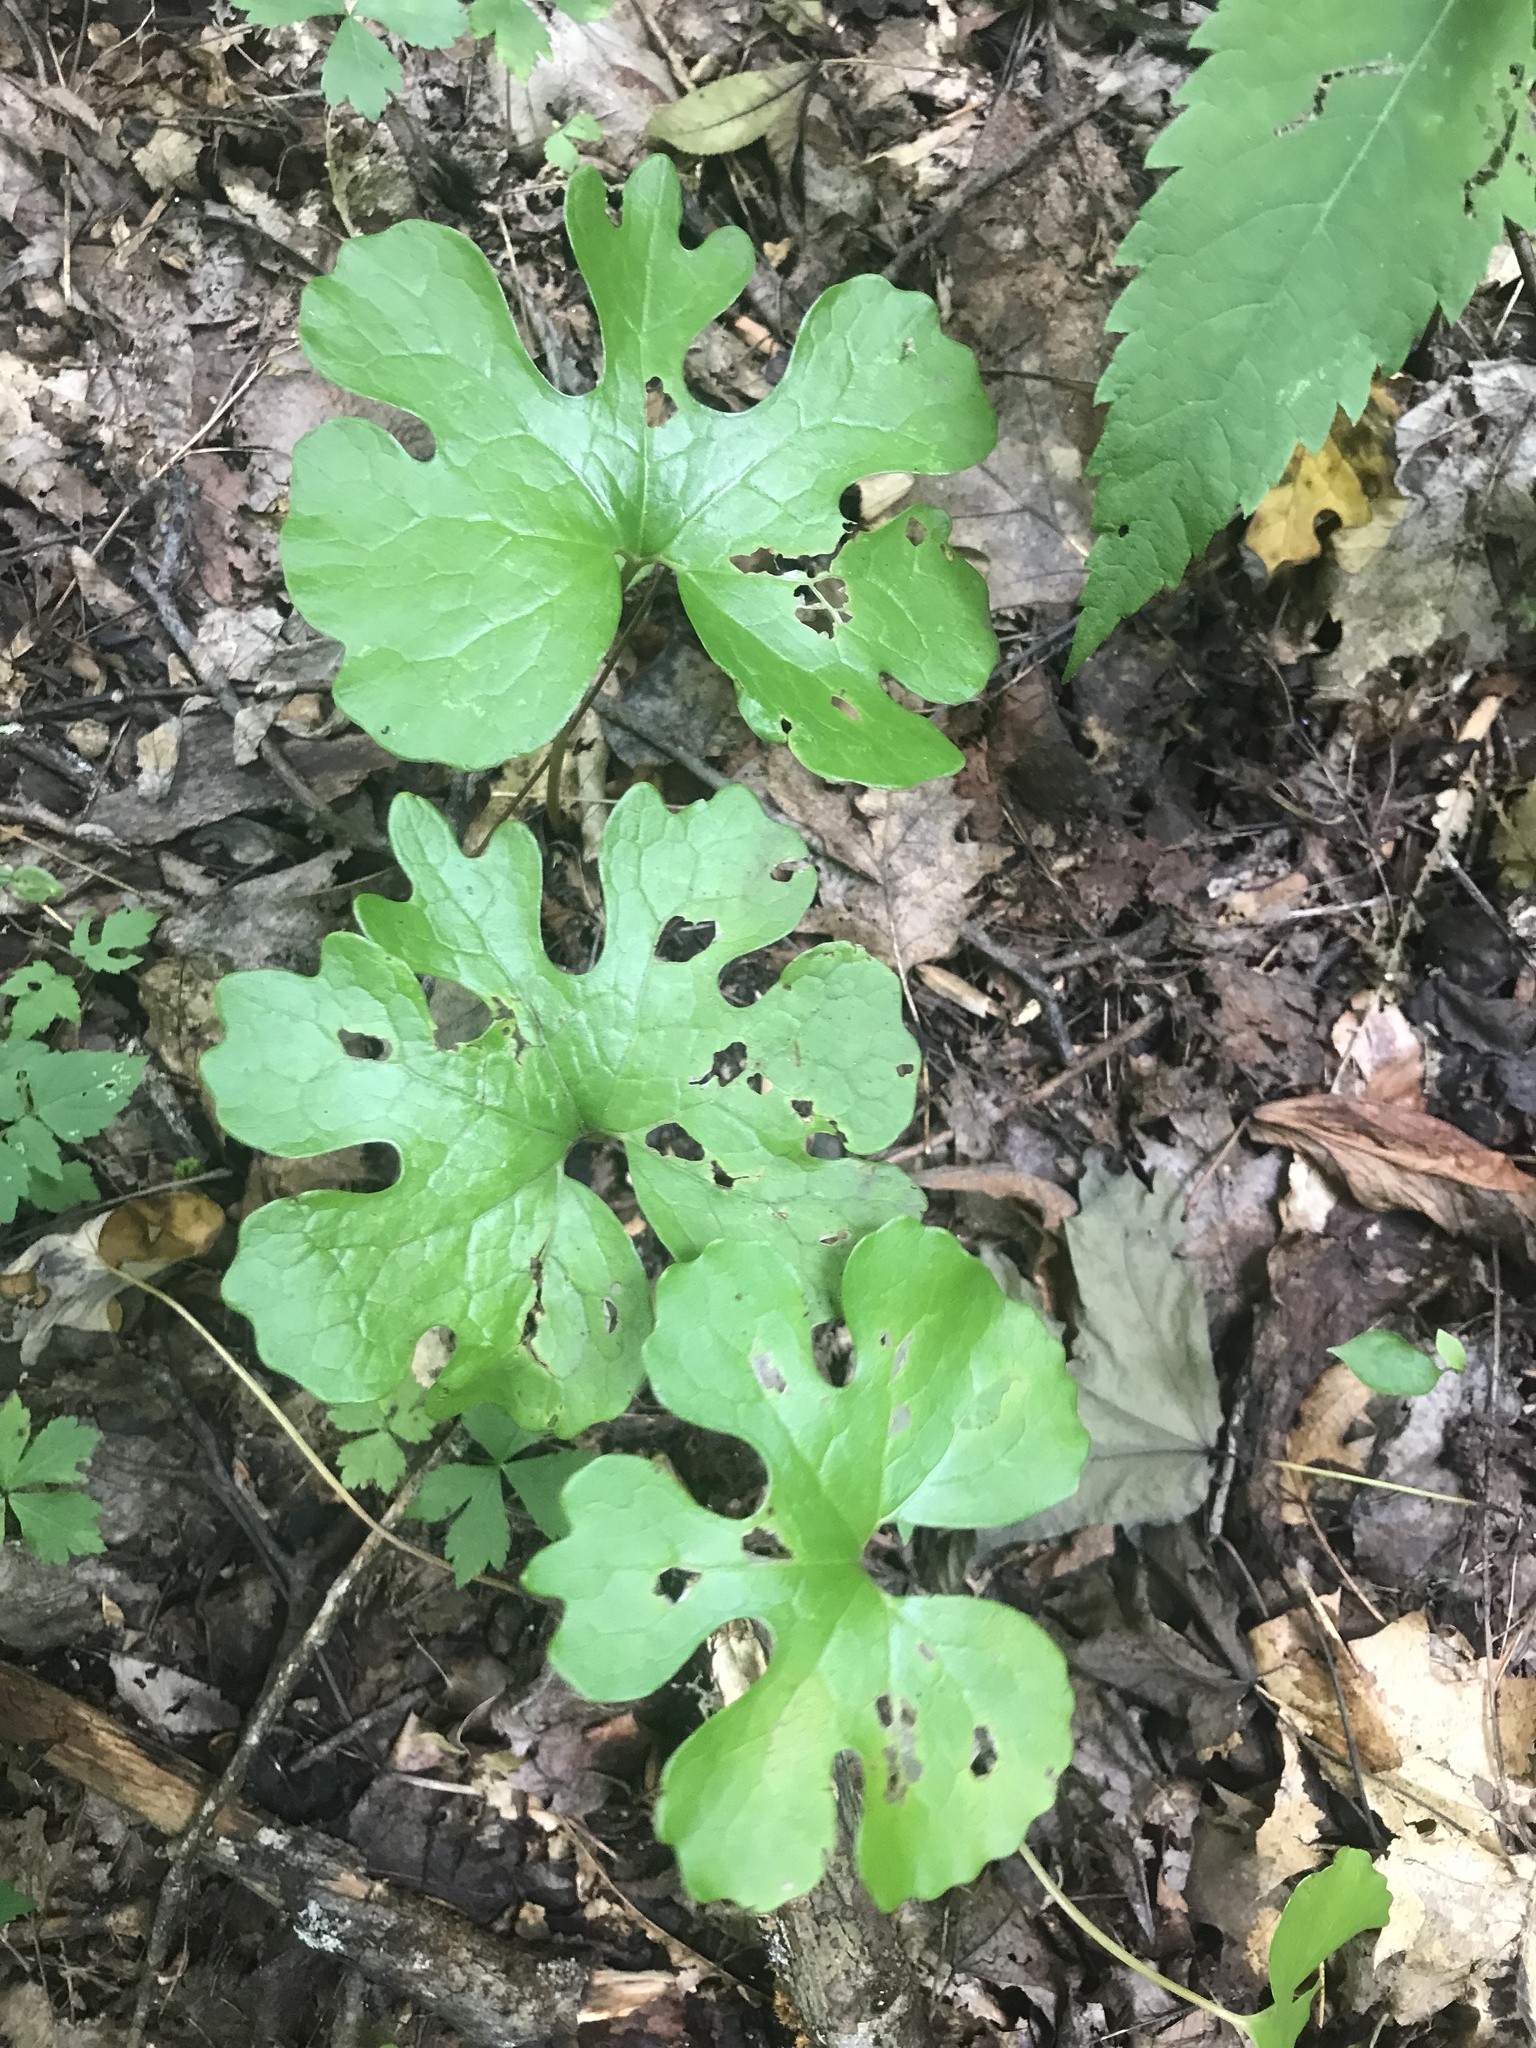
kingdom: Plantae
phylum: Tracheophyta
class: Magnoliopsida
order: Ranunculales
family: Papaveraceae
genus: Sanguinaria
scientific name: Sanguinaria canadensis
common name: Bloodroot
